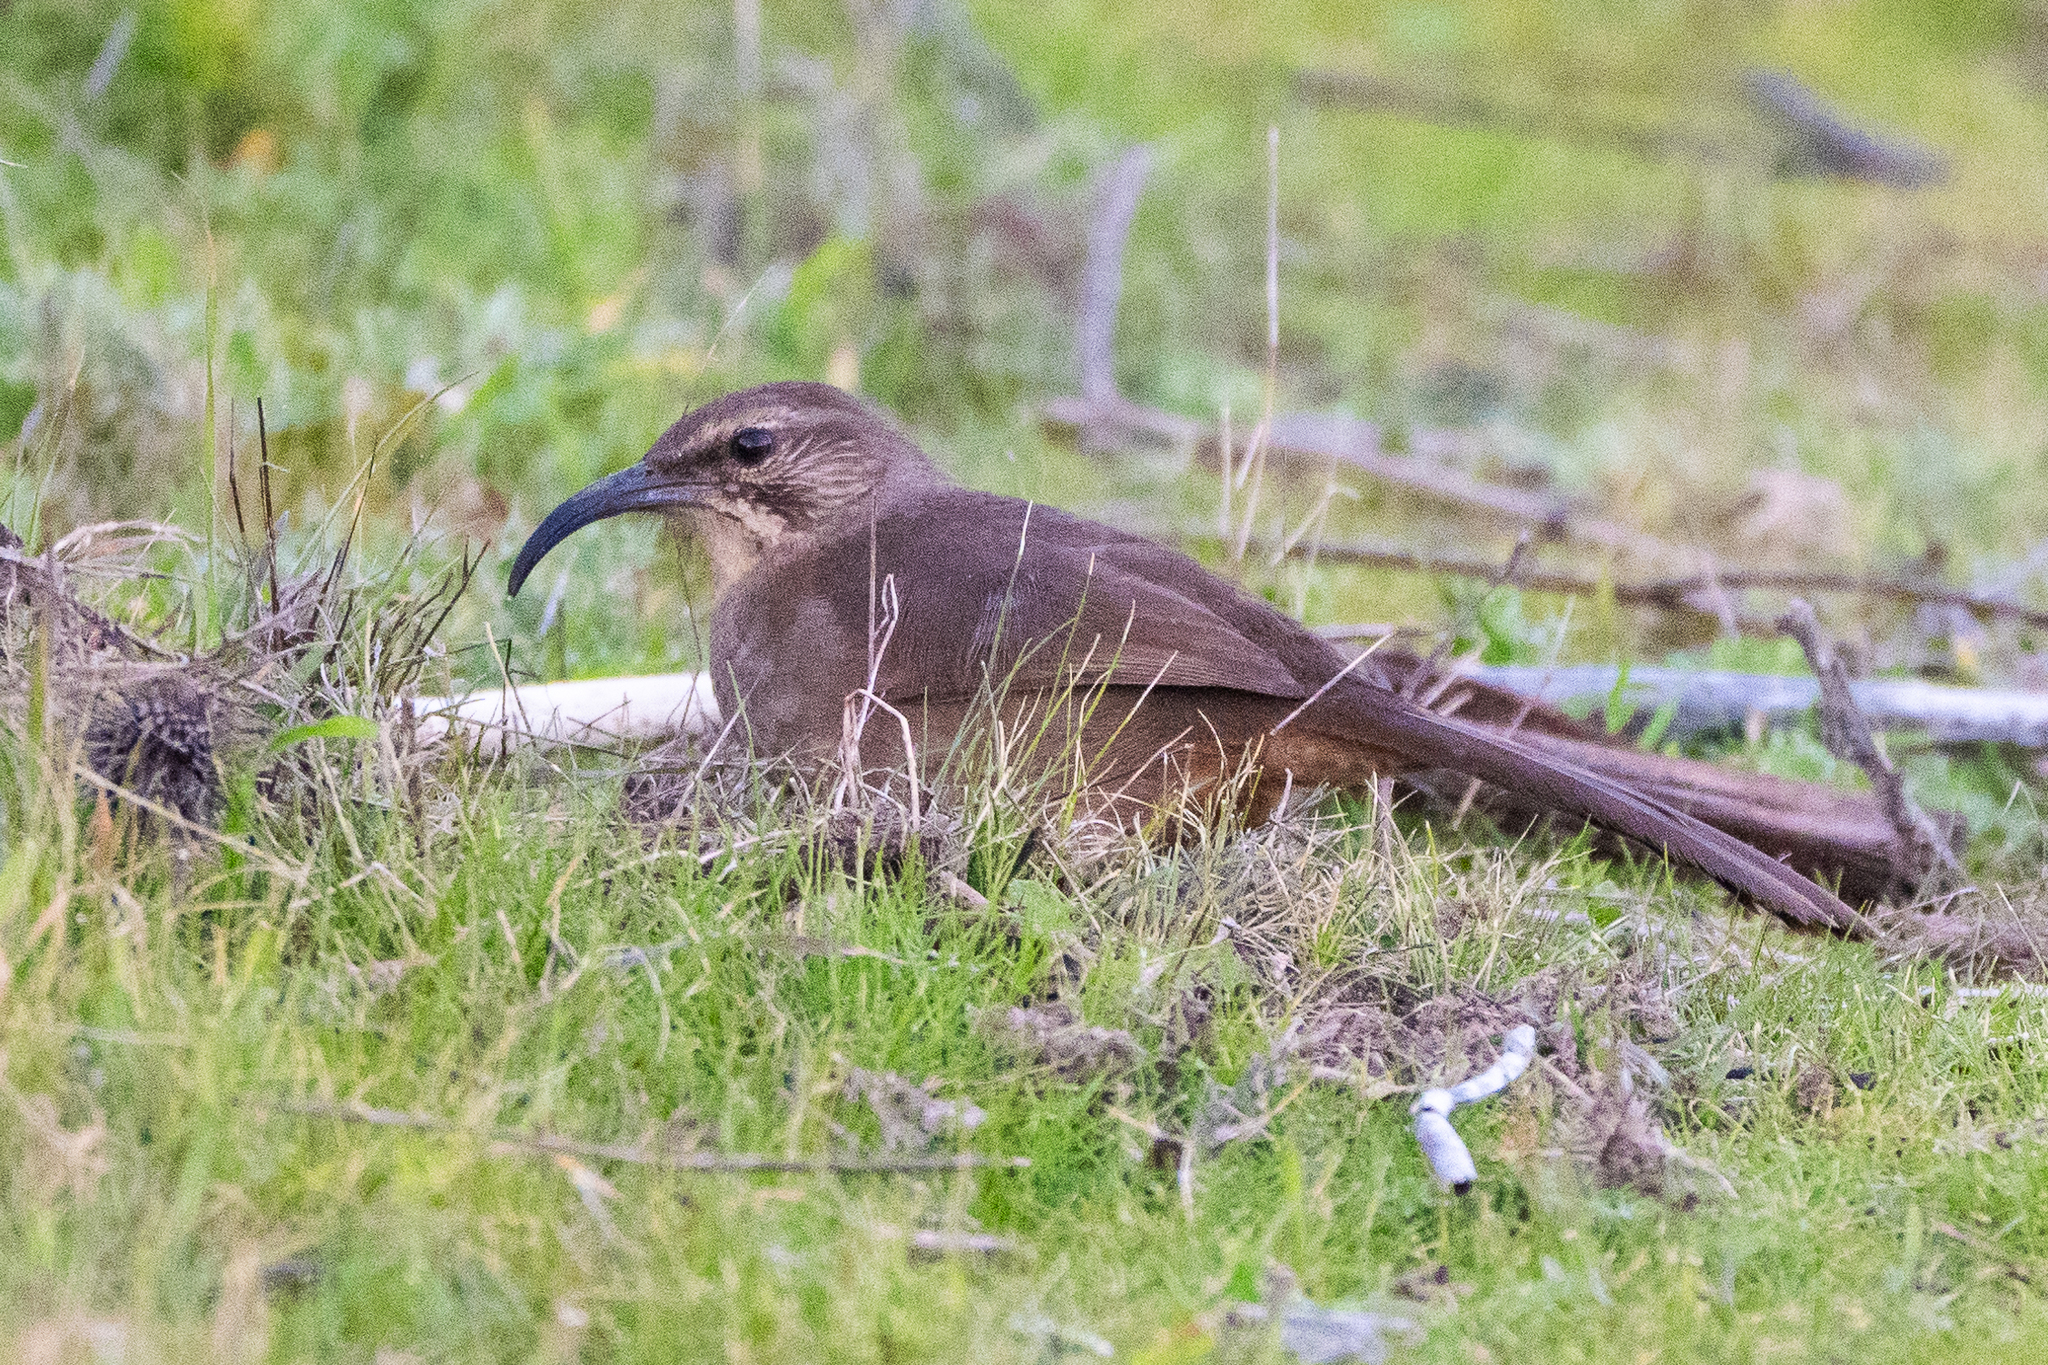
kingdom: Animalia
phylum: Chordata
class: Aves
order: Passeriformes
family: Mimidae
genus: Toxostoma
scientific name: Toxostoma redivivum
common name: California thrasher
